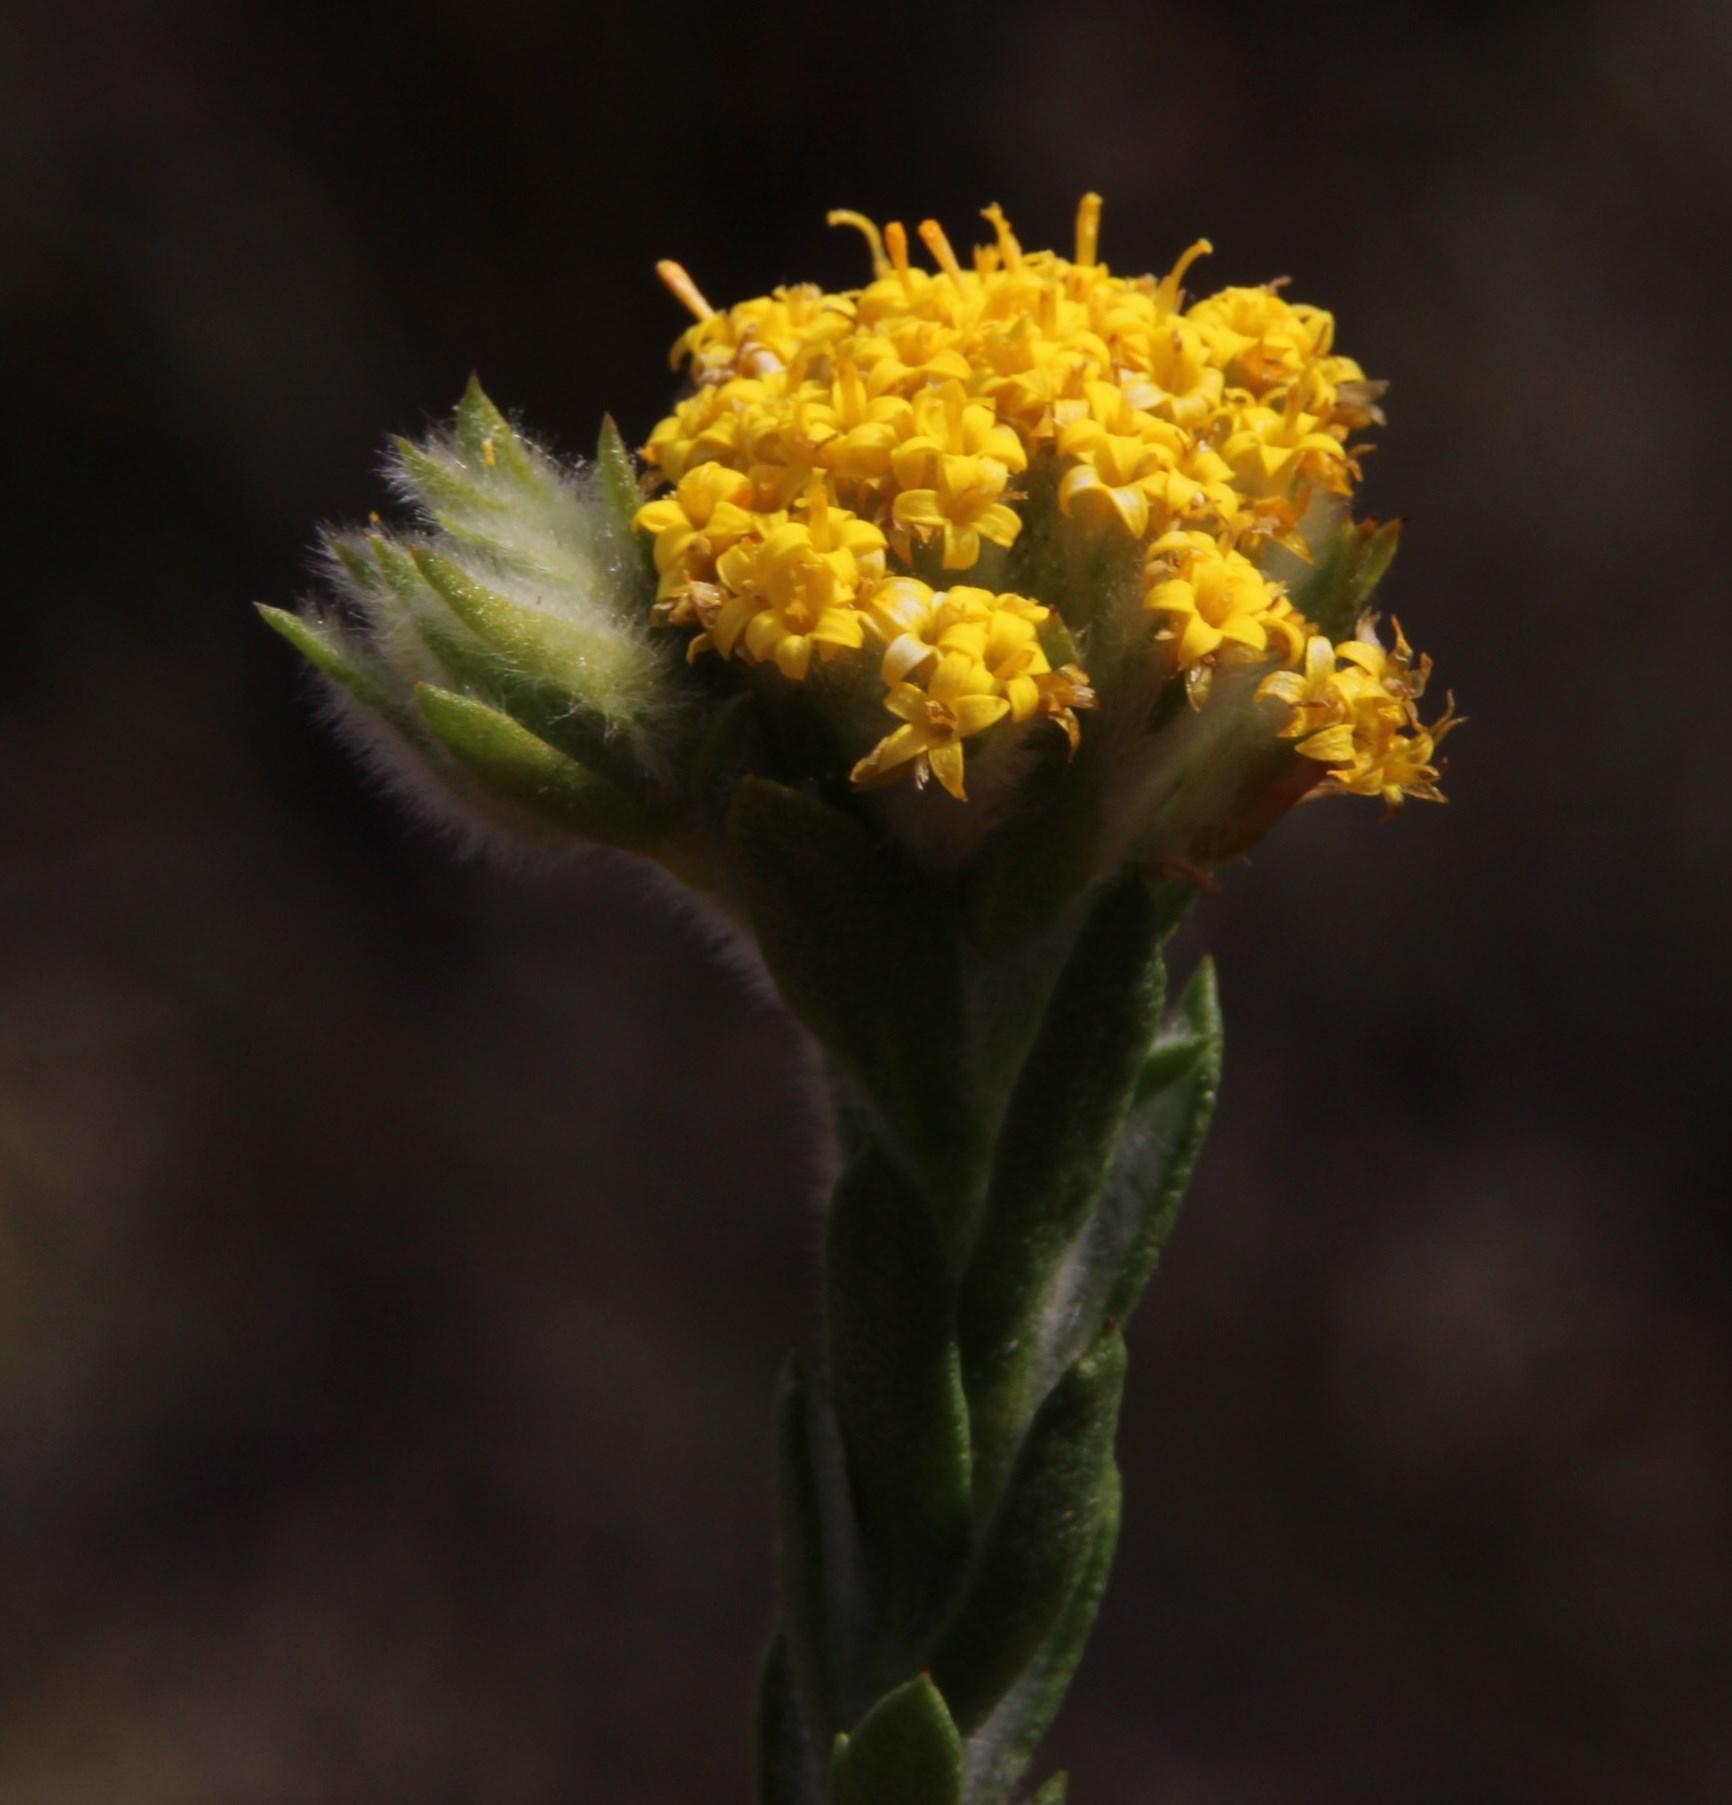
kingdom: Plantae
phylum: Tracheophyta
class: Magnoliopsida
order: Asterales
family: Asteraceae
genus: Hymenolepis
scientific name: Hymenolepis gnidioides
